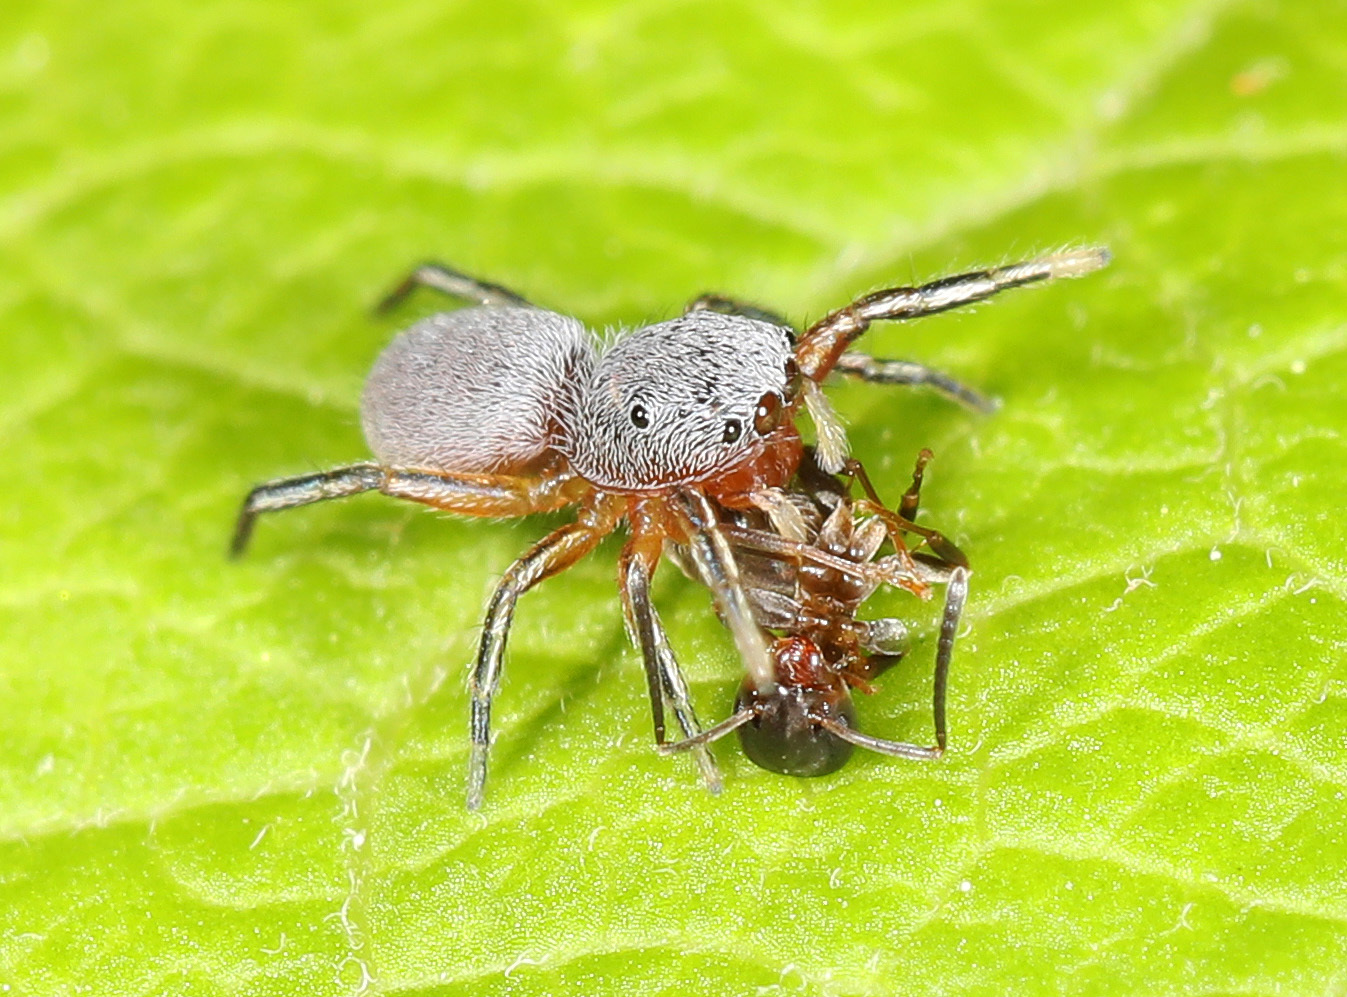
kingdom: Animalia
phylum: Arthropoda
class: Arachnida
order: Araneae
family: Salticidae
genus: Tutelina
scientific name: Tutelina similis
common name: Thick-spined jumping spider
